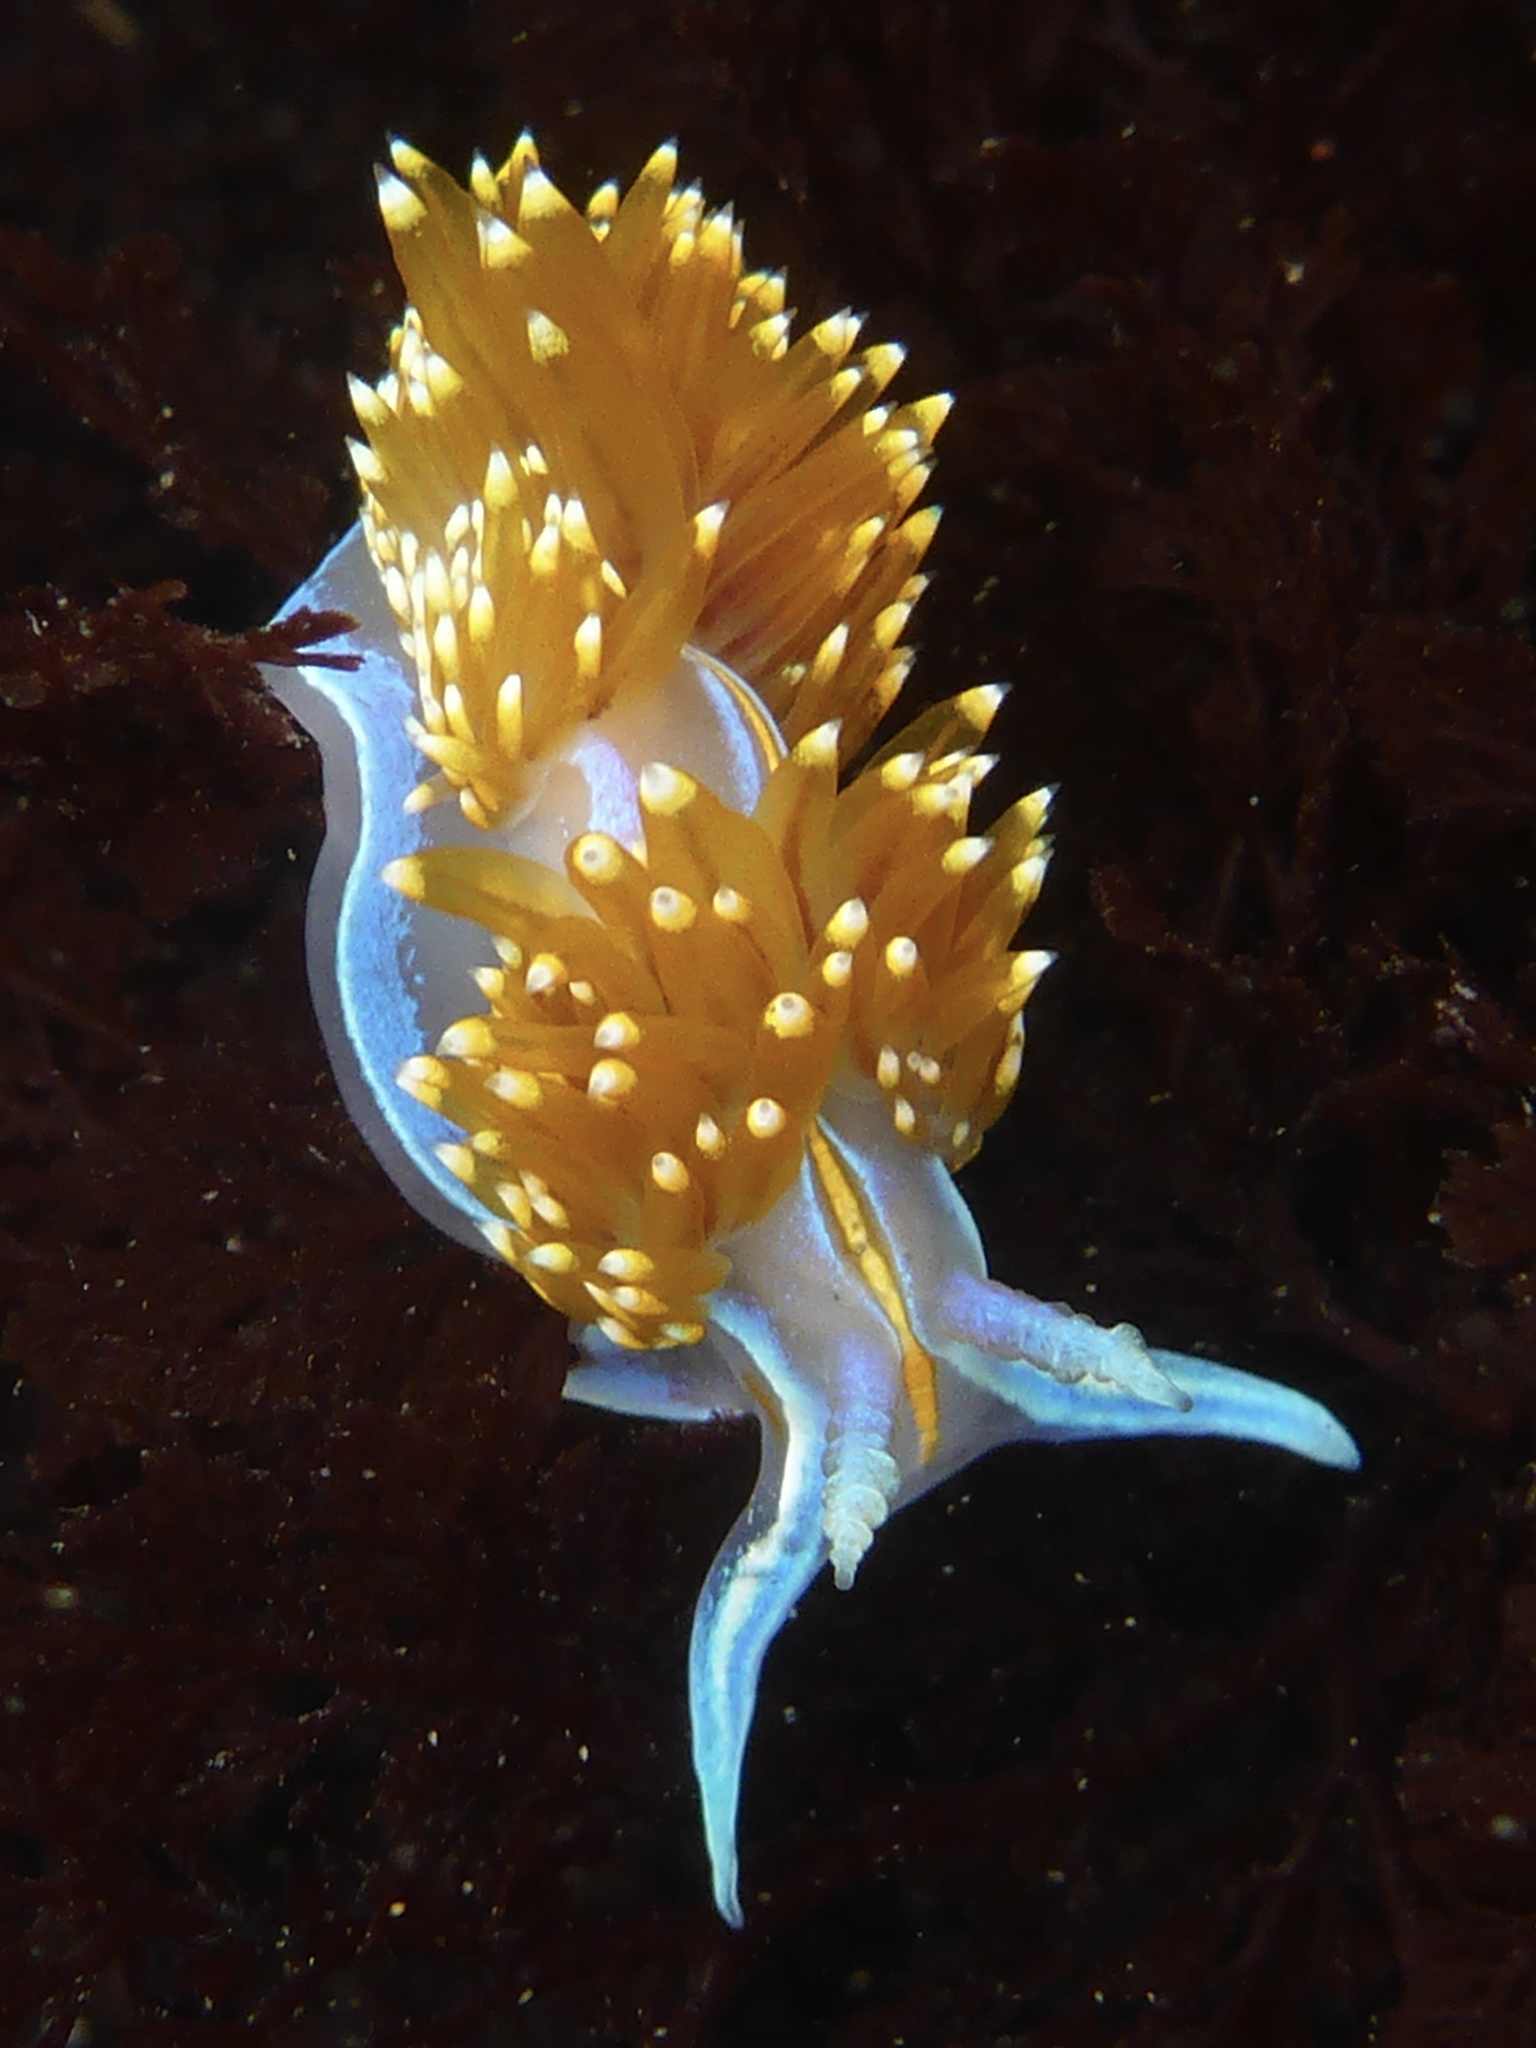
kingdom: Animalia
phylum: Mollusca
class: Gastropoda
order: Nudibranchia
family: Myrrhinidae
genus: Hermissenda
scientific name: Hermissenda opalescens
